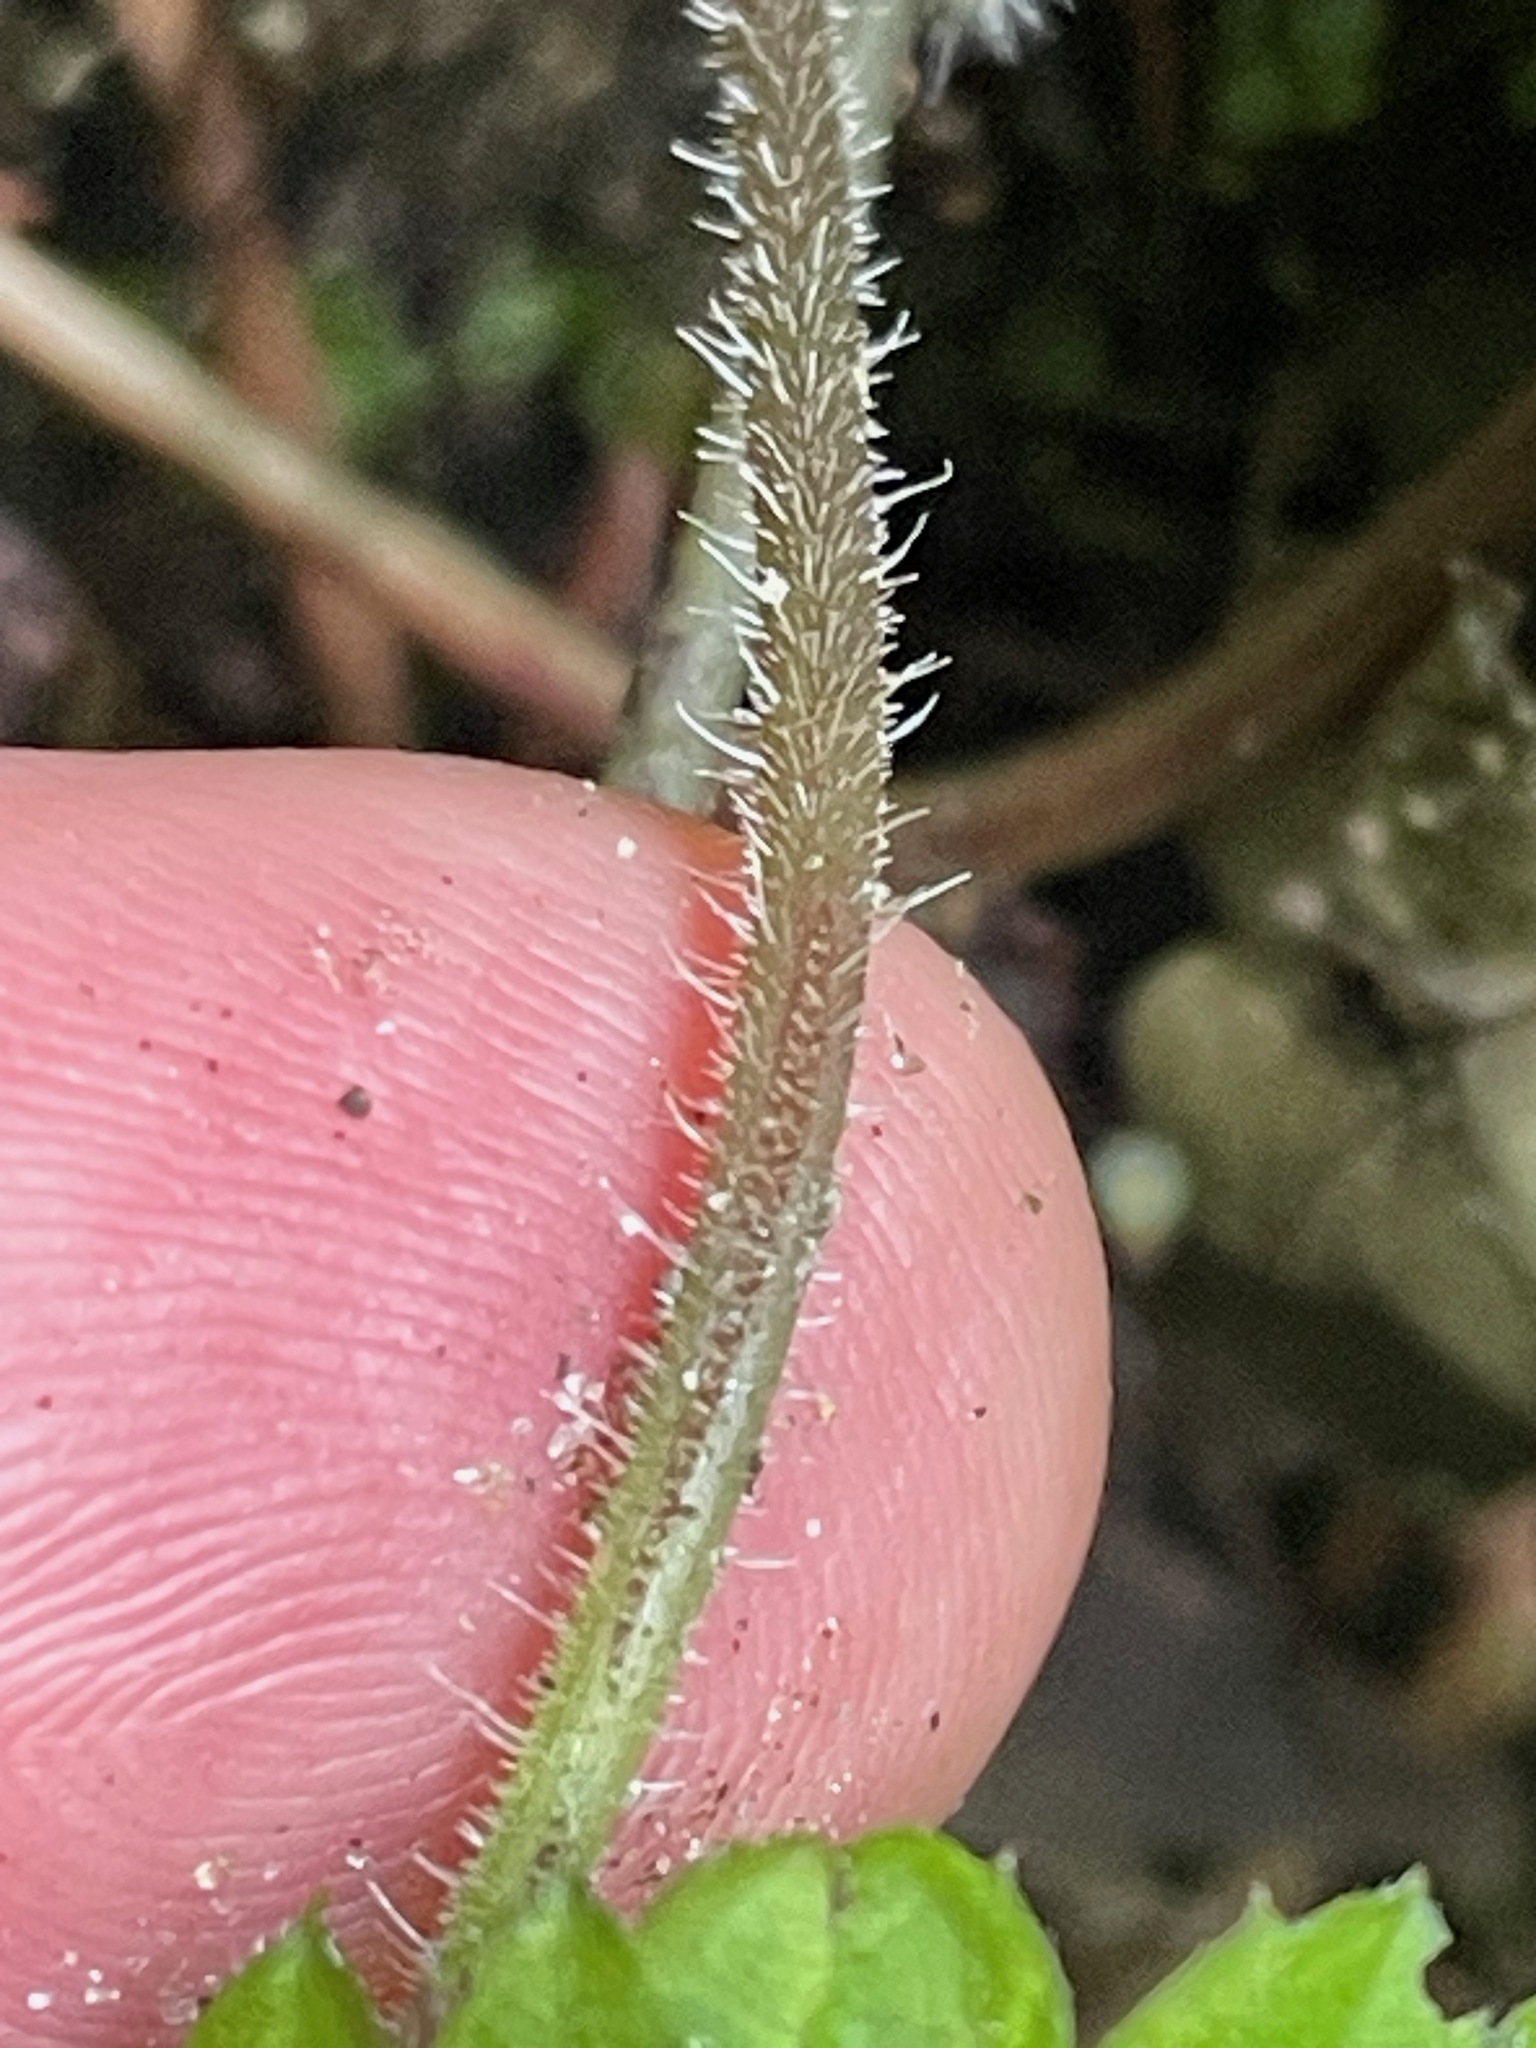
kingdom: Plantae
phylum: Tracheophyta
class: Magnoliopsida
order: Saxifragales
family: Saxifragaceae
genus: Tiarella
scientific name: Tiarella stolonifera
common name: Stoloniferous foamflower
